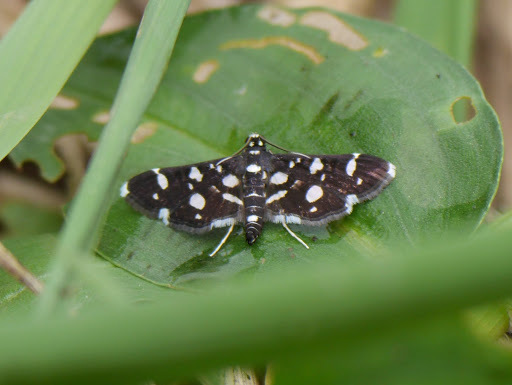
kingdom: Animalia
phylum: Arthropoda
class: Insecta
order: Lepidoptera
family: Crambidae
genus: Bocchoris
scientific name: Bocchoris inspersalis
